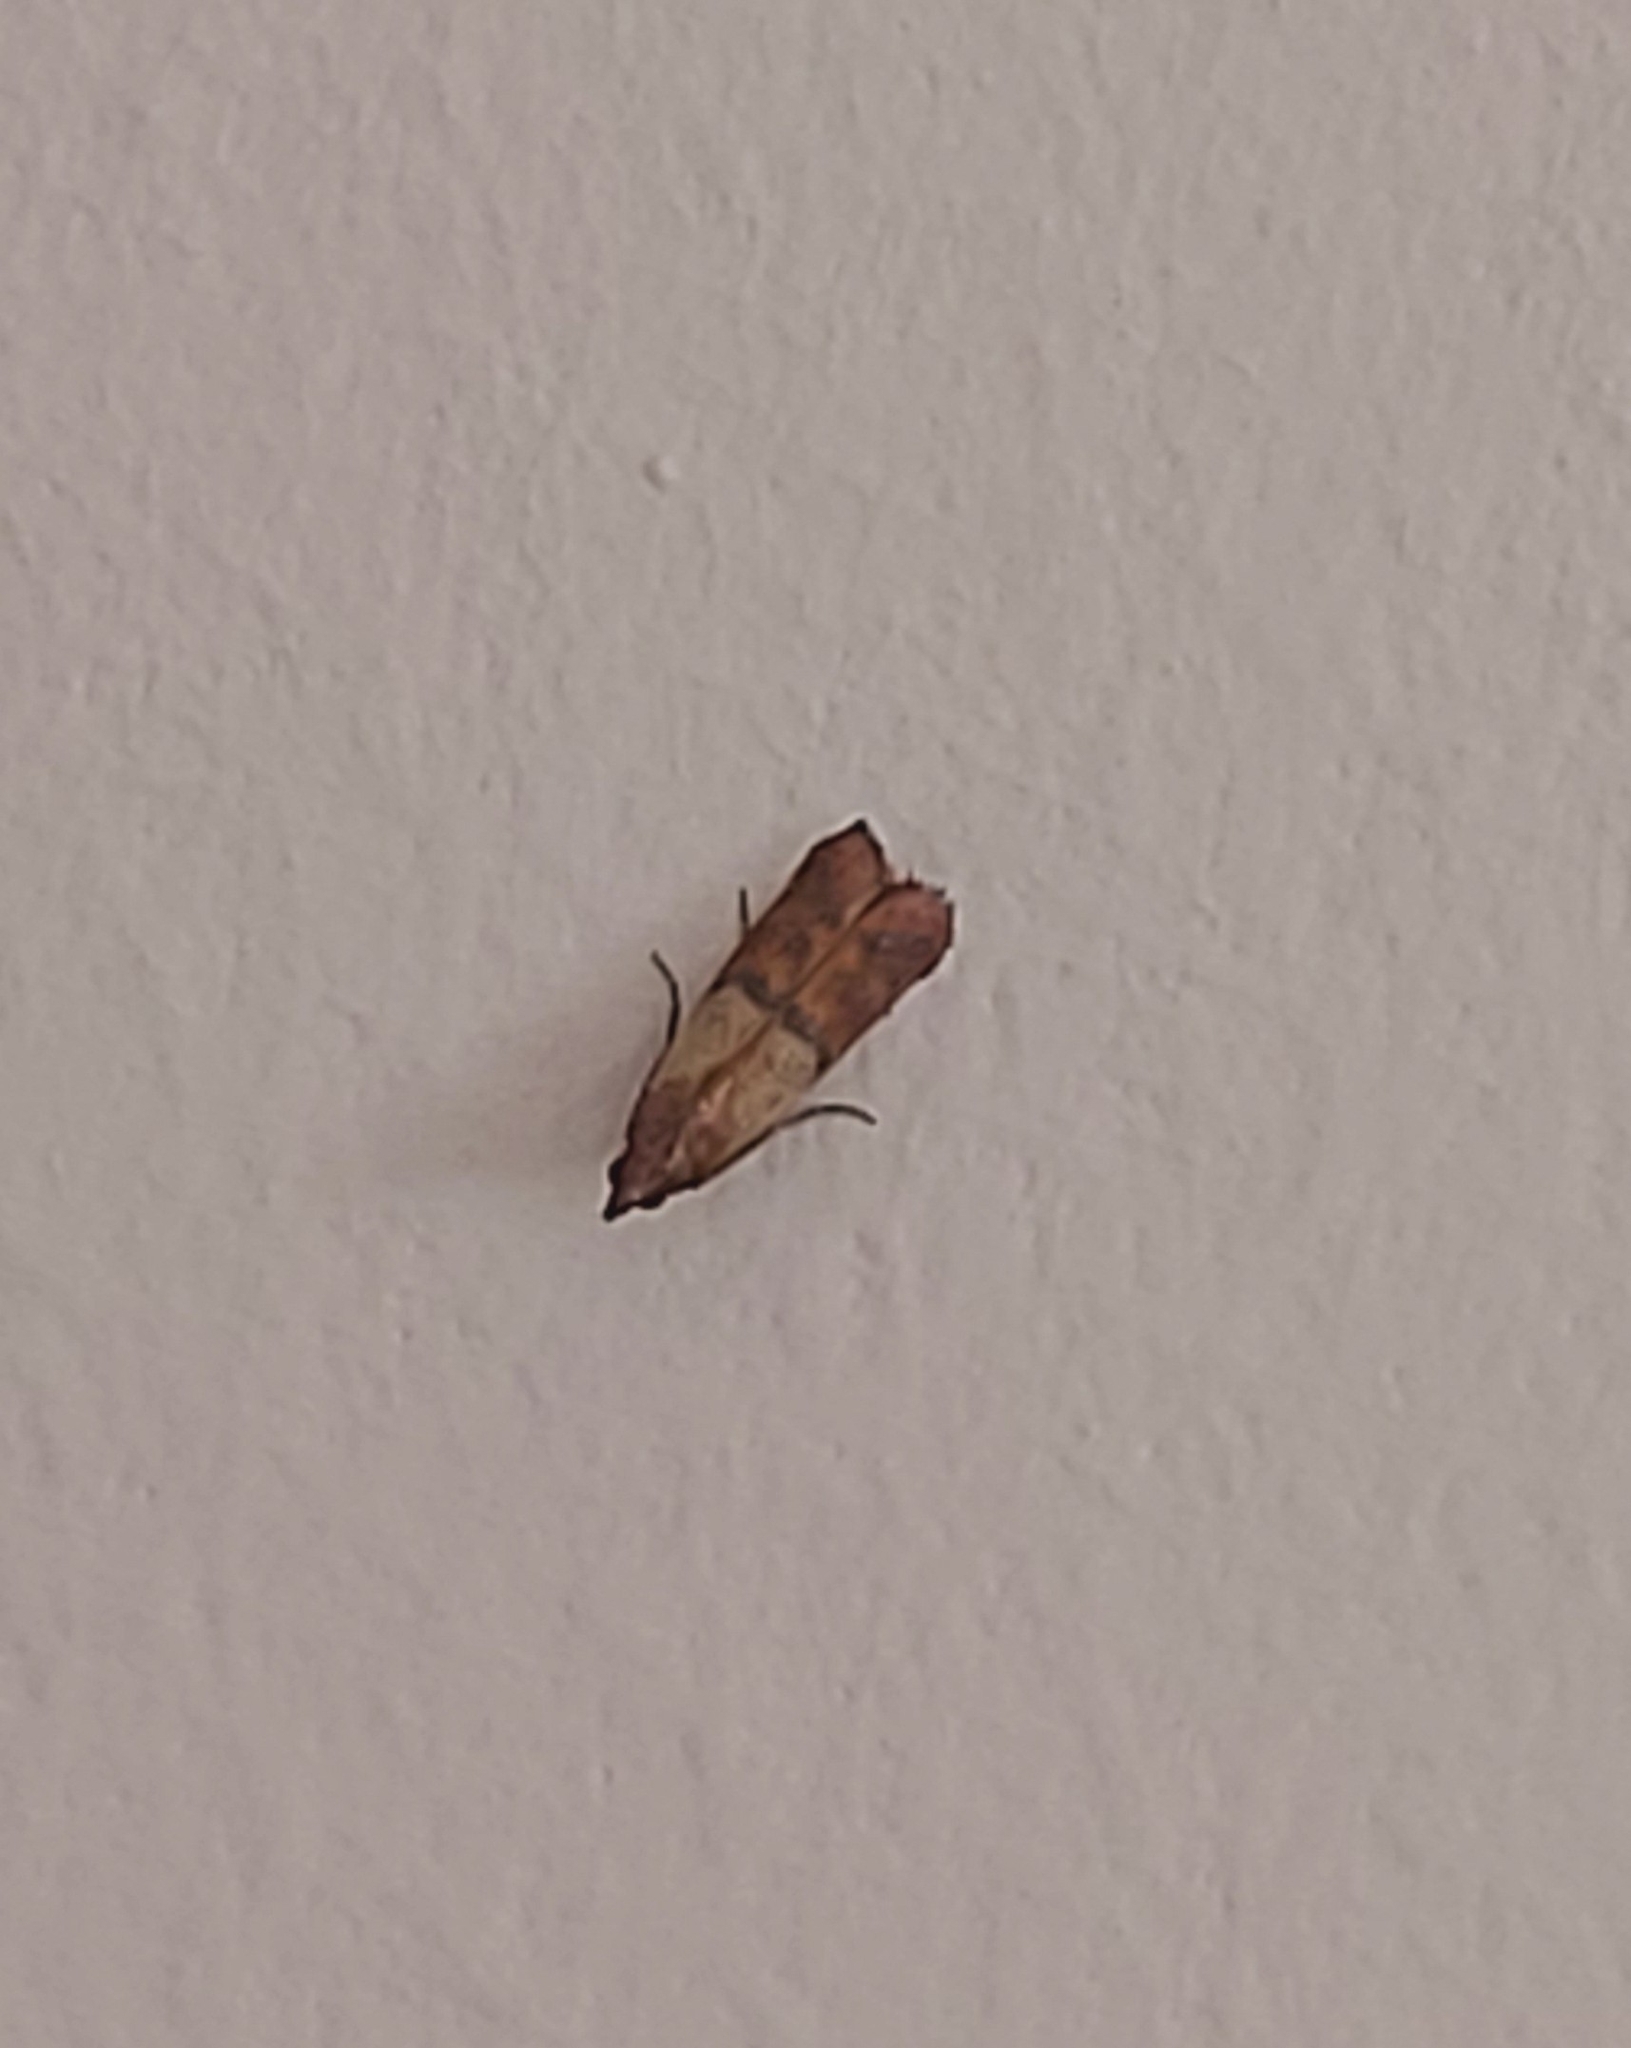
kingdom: Animalia
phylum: Arthropoda
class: Insecta
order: Lepidoptera
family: Pyralidae
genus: Plodia
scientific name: Plodia interpunctella
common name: Indian meal moth
